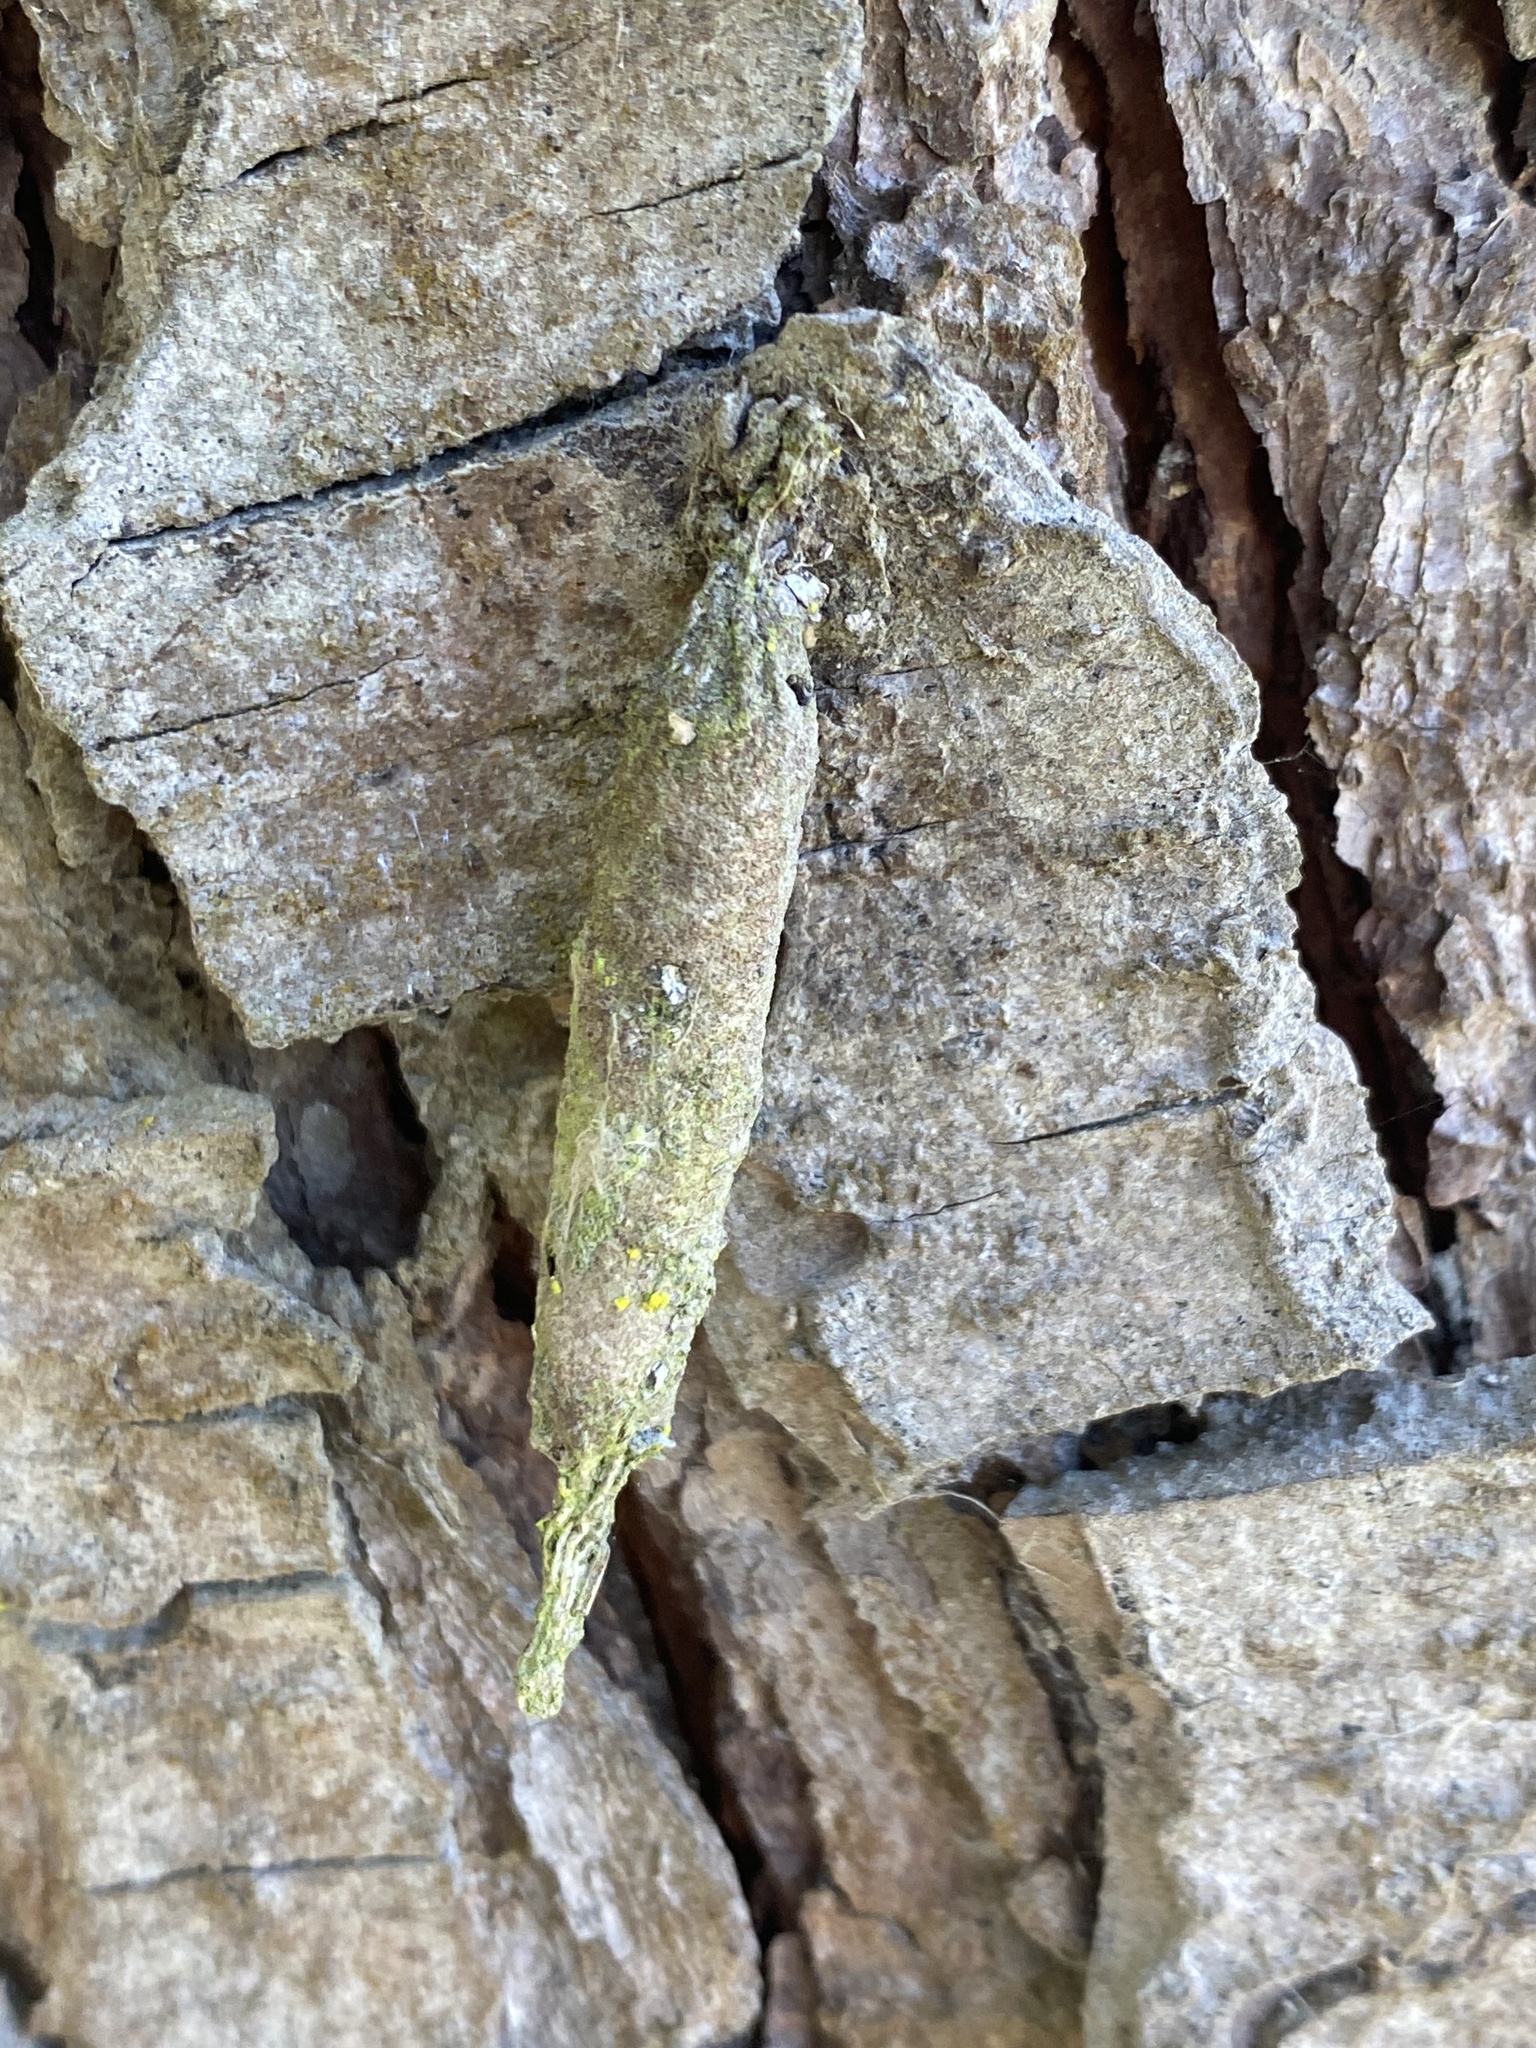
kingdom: Animalia
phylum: Arthropoda
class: Insecta
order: Lepidoptera
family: Psychidae
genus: Liothula
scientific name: Liothula omnivora
